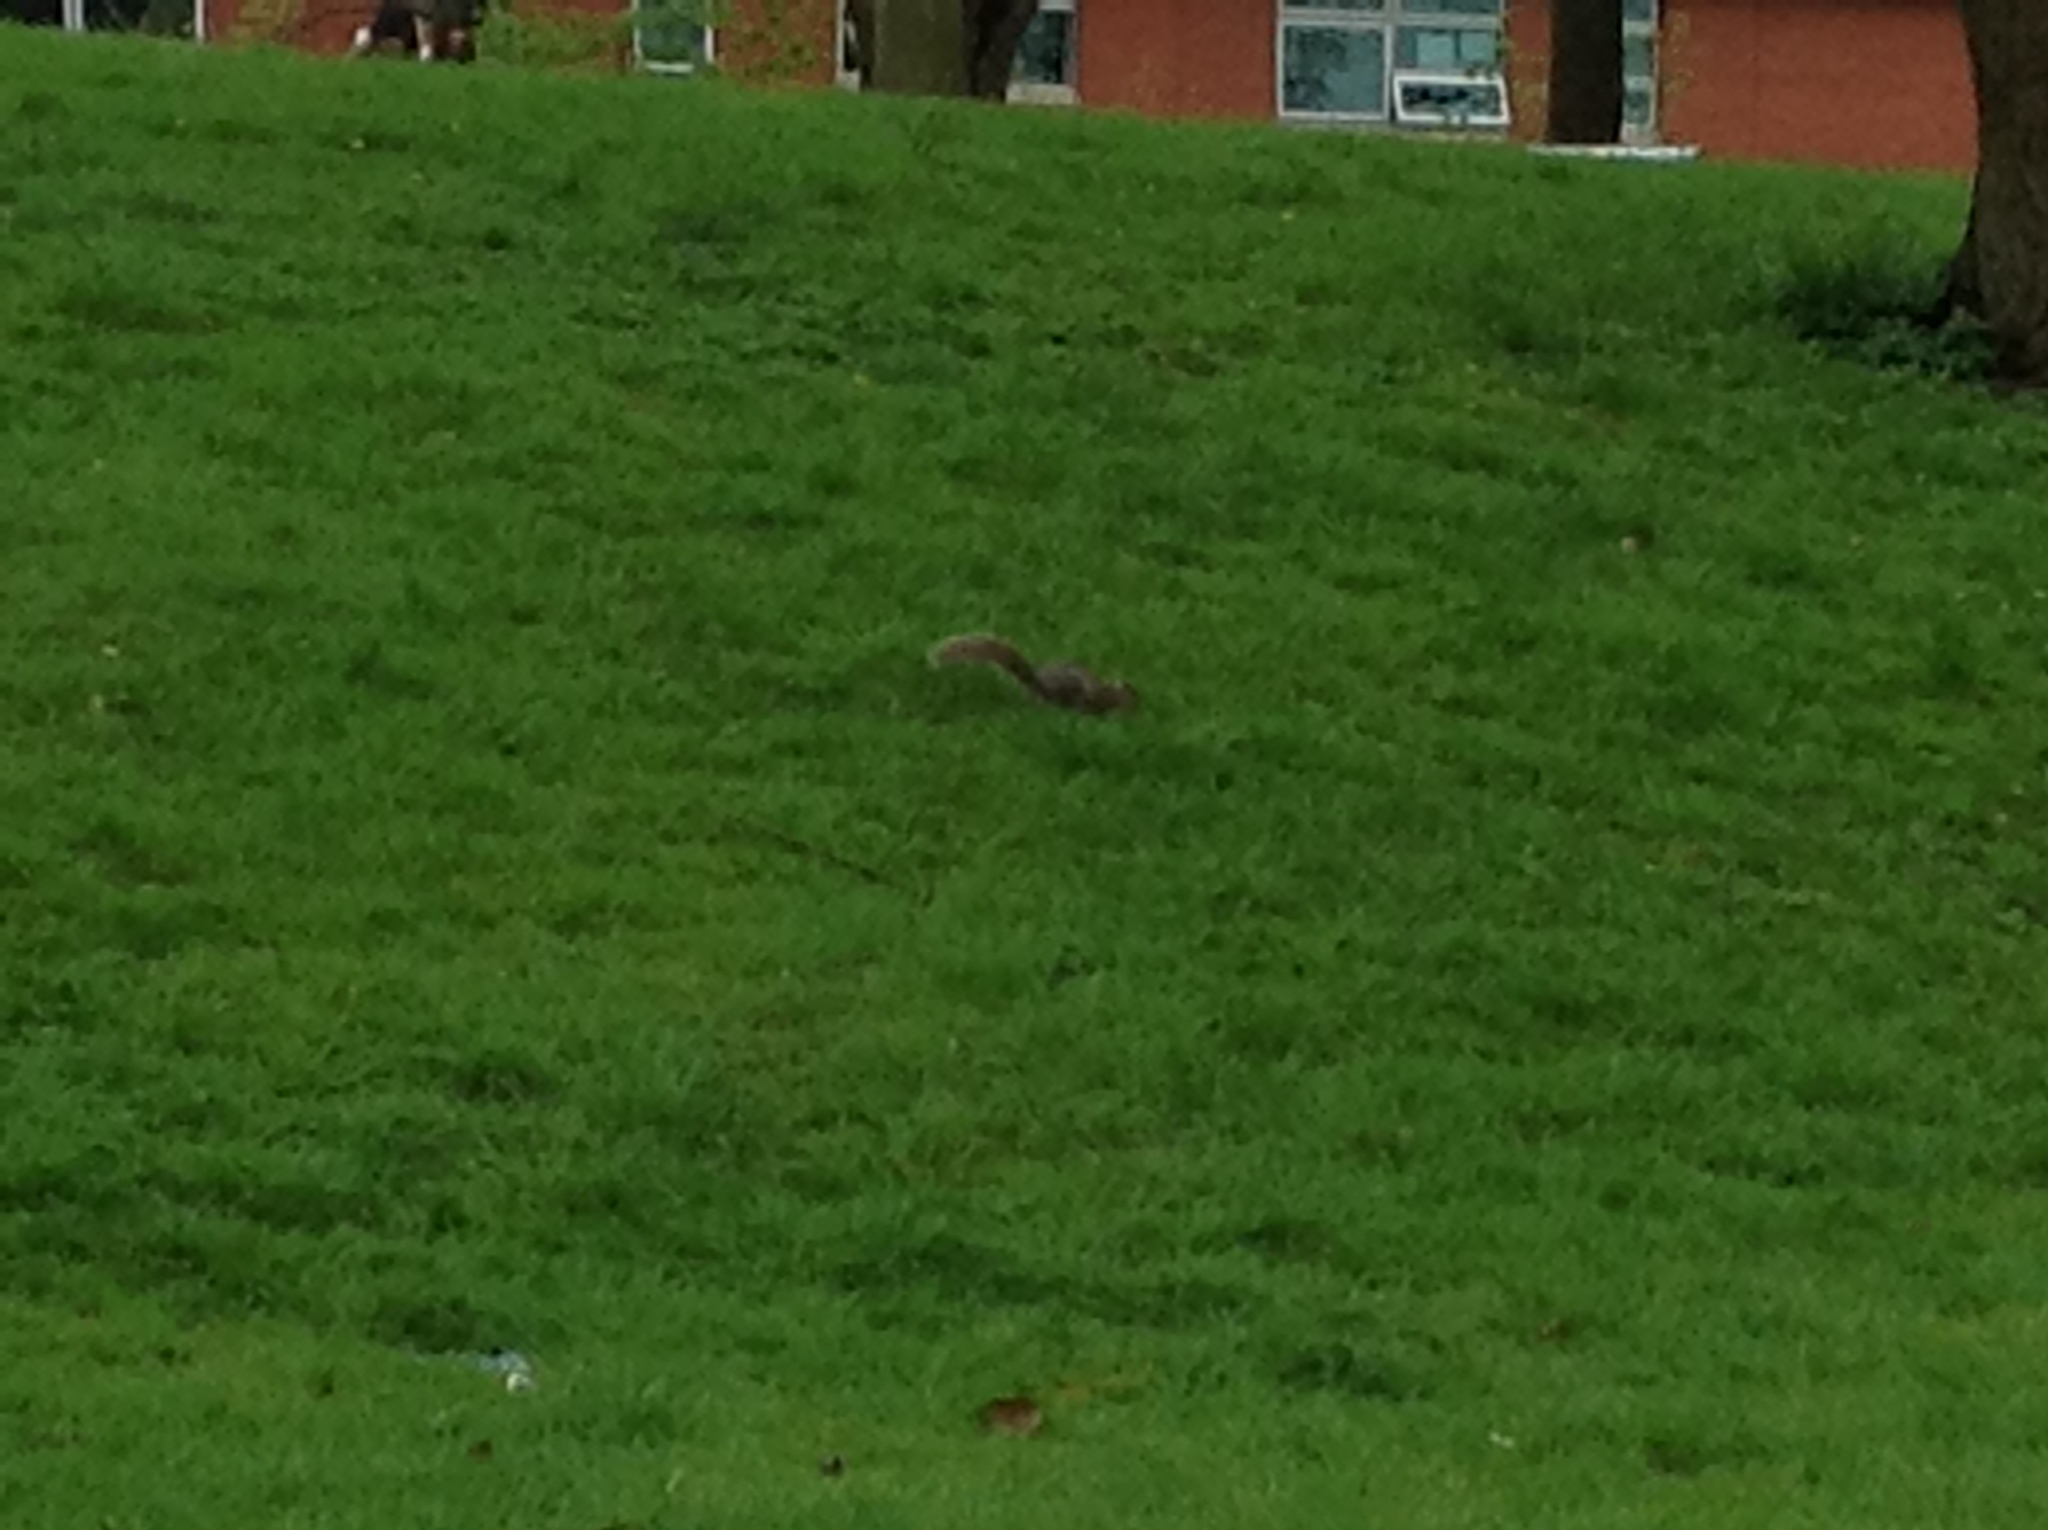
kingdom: Animalia
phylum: Chordata
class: Mammalia
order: Rodentia
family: Sciuridae
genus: Sciurus
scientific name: Sciurus carolinensis
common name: Eastern gray squirrel
